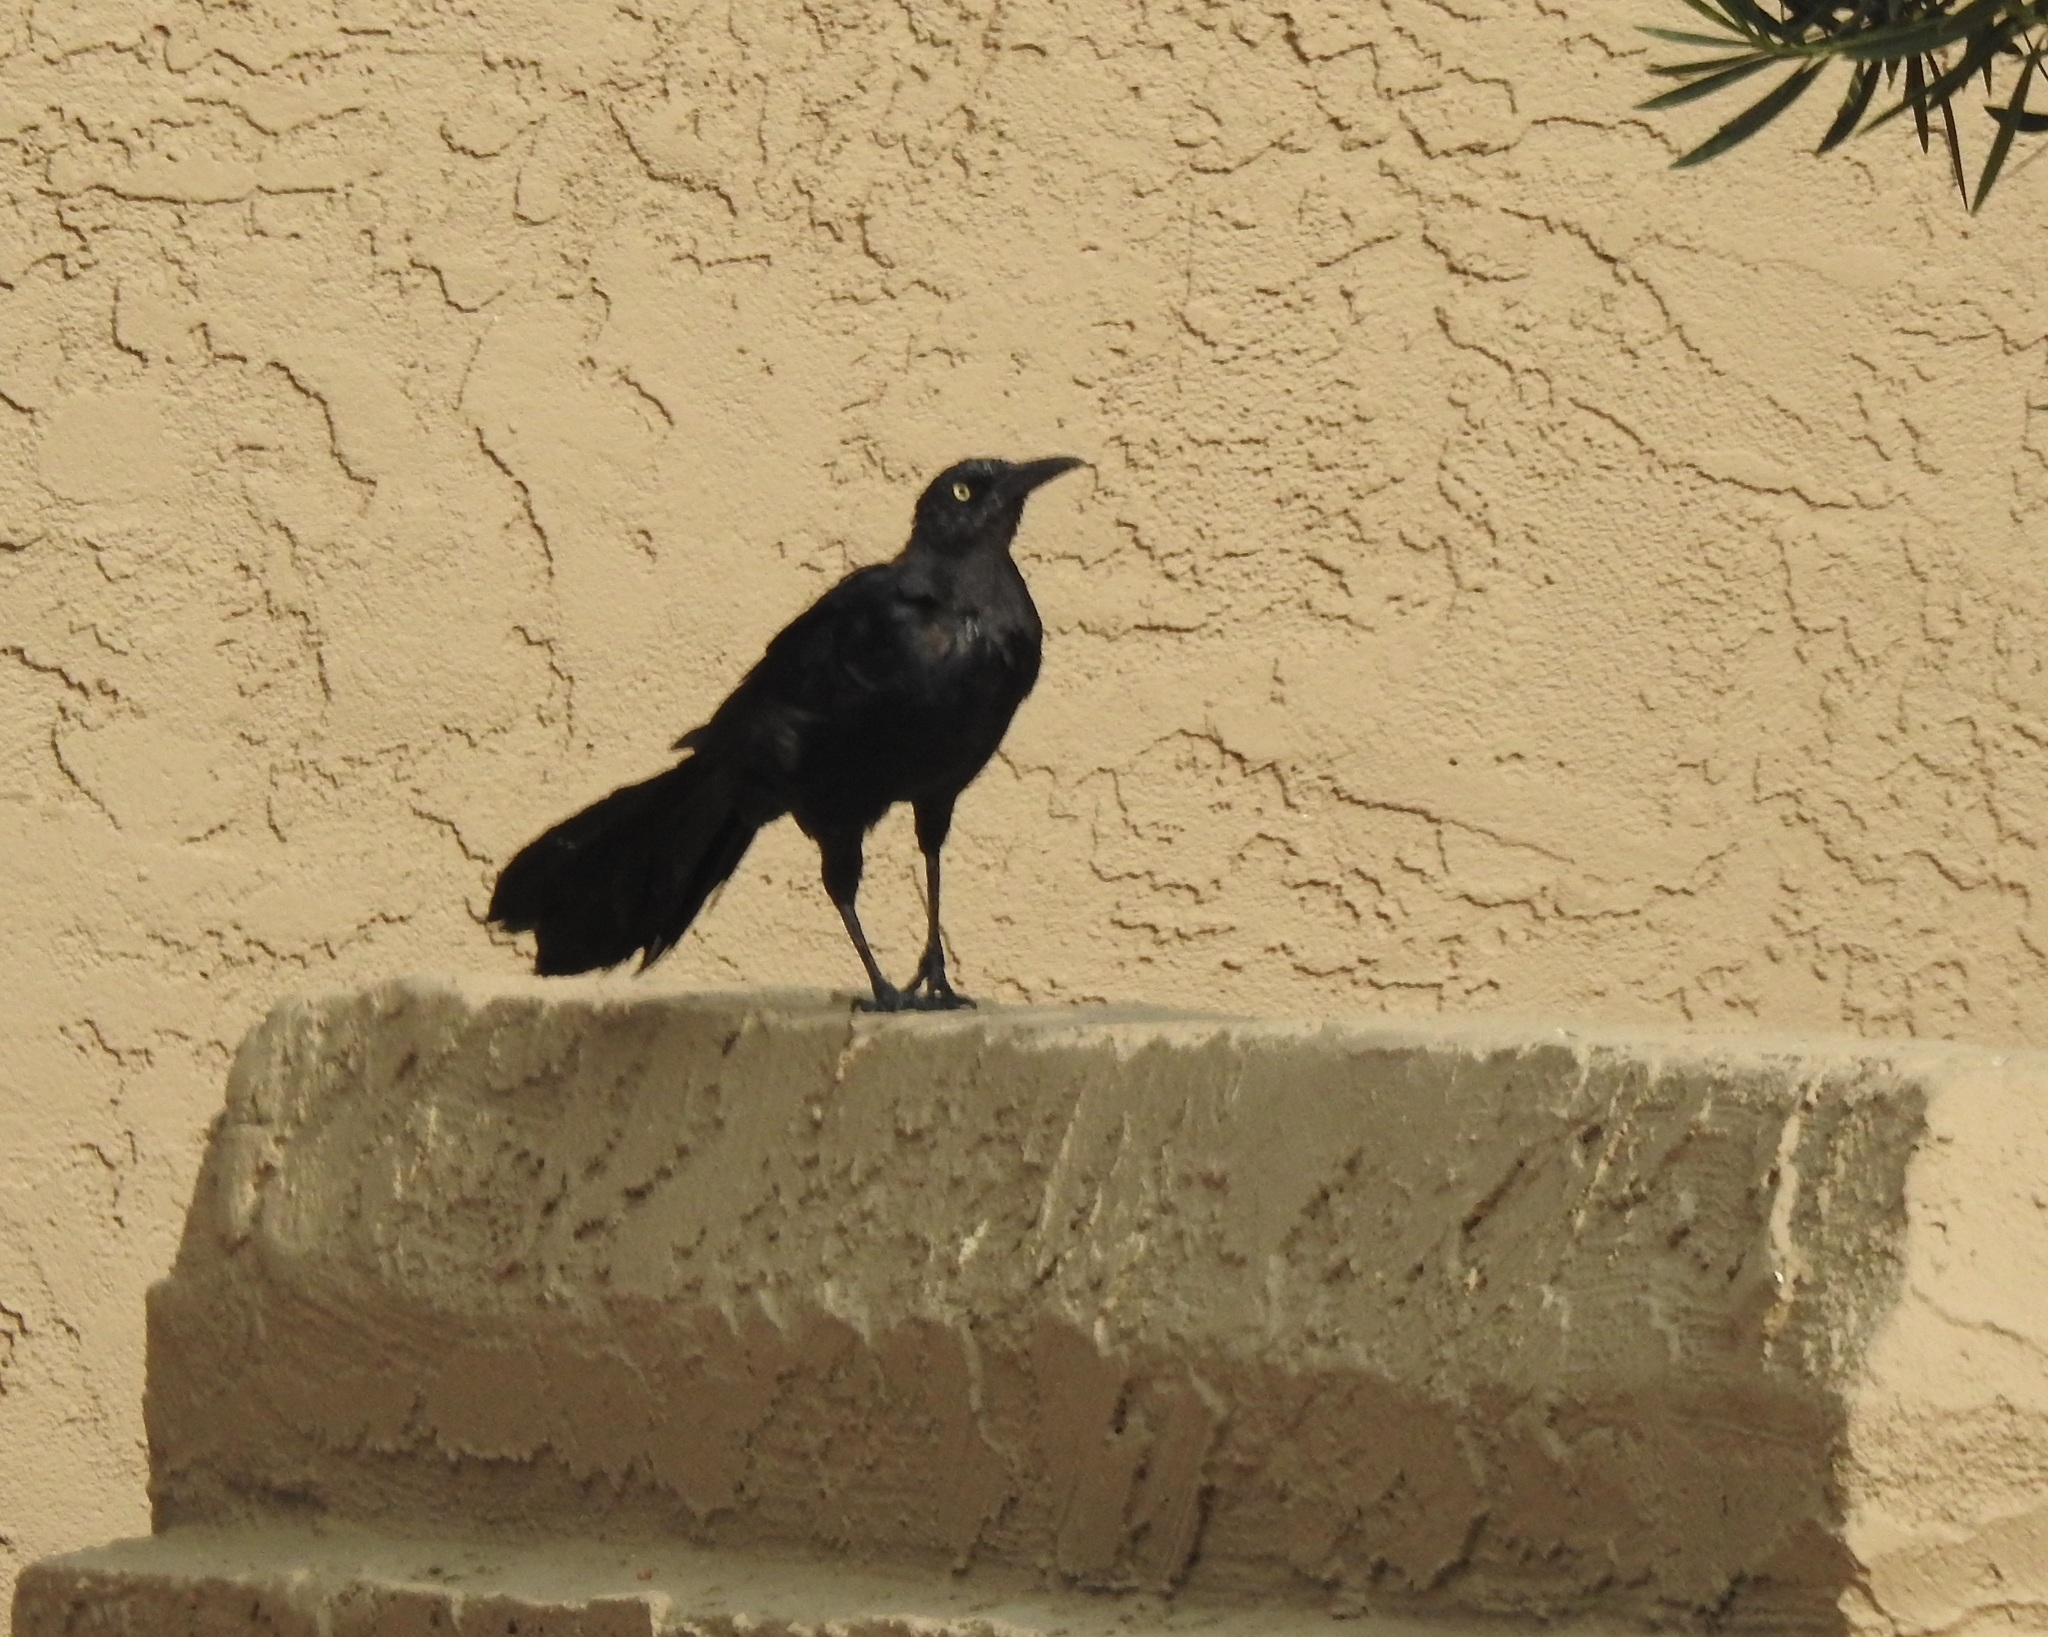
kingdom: Animalia
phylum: Chordata
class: Aves
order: Passeriformes
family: Icteridae
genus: Quiscalus
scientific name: Quiscalus mexicanus
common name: Great-tailed grackle
